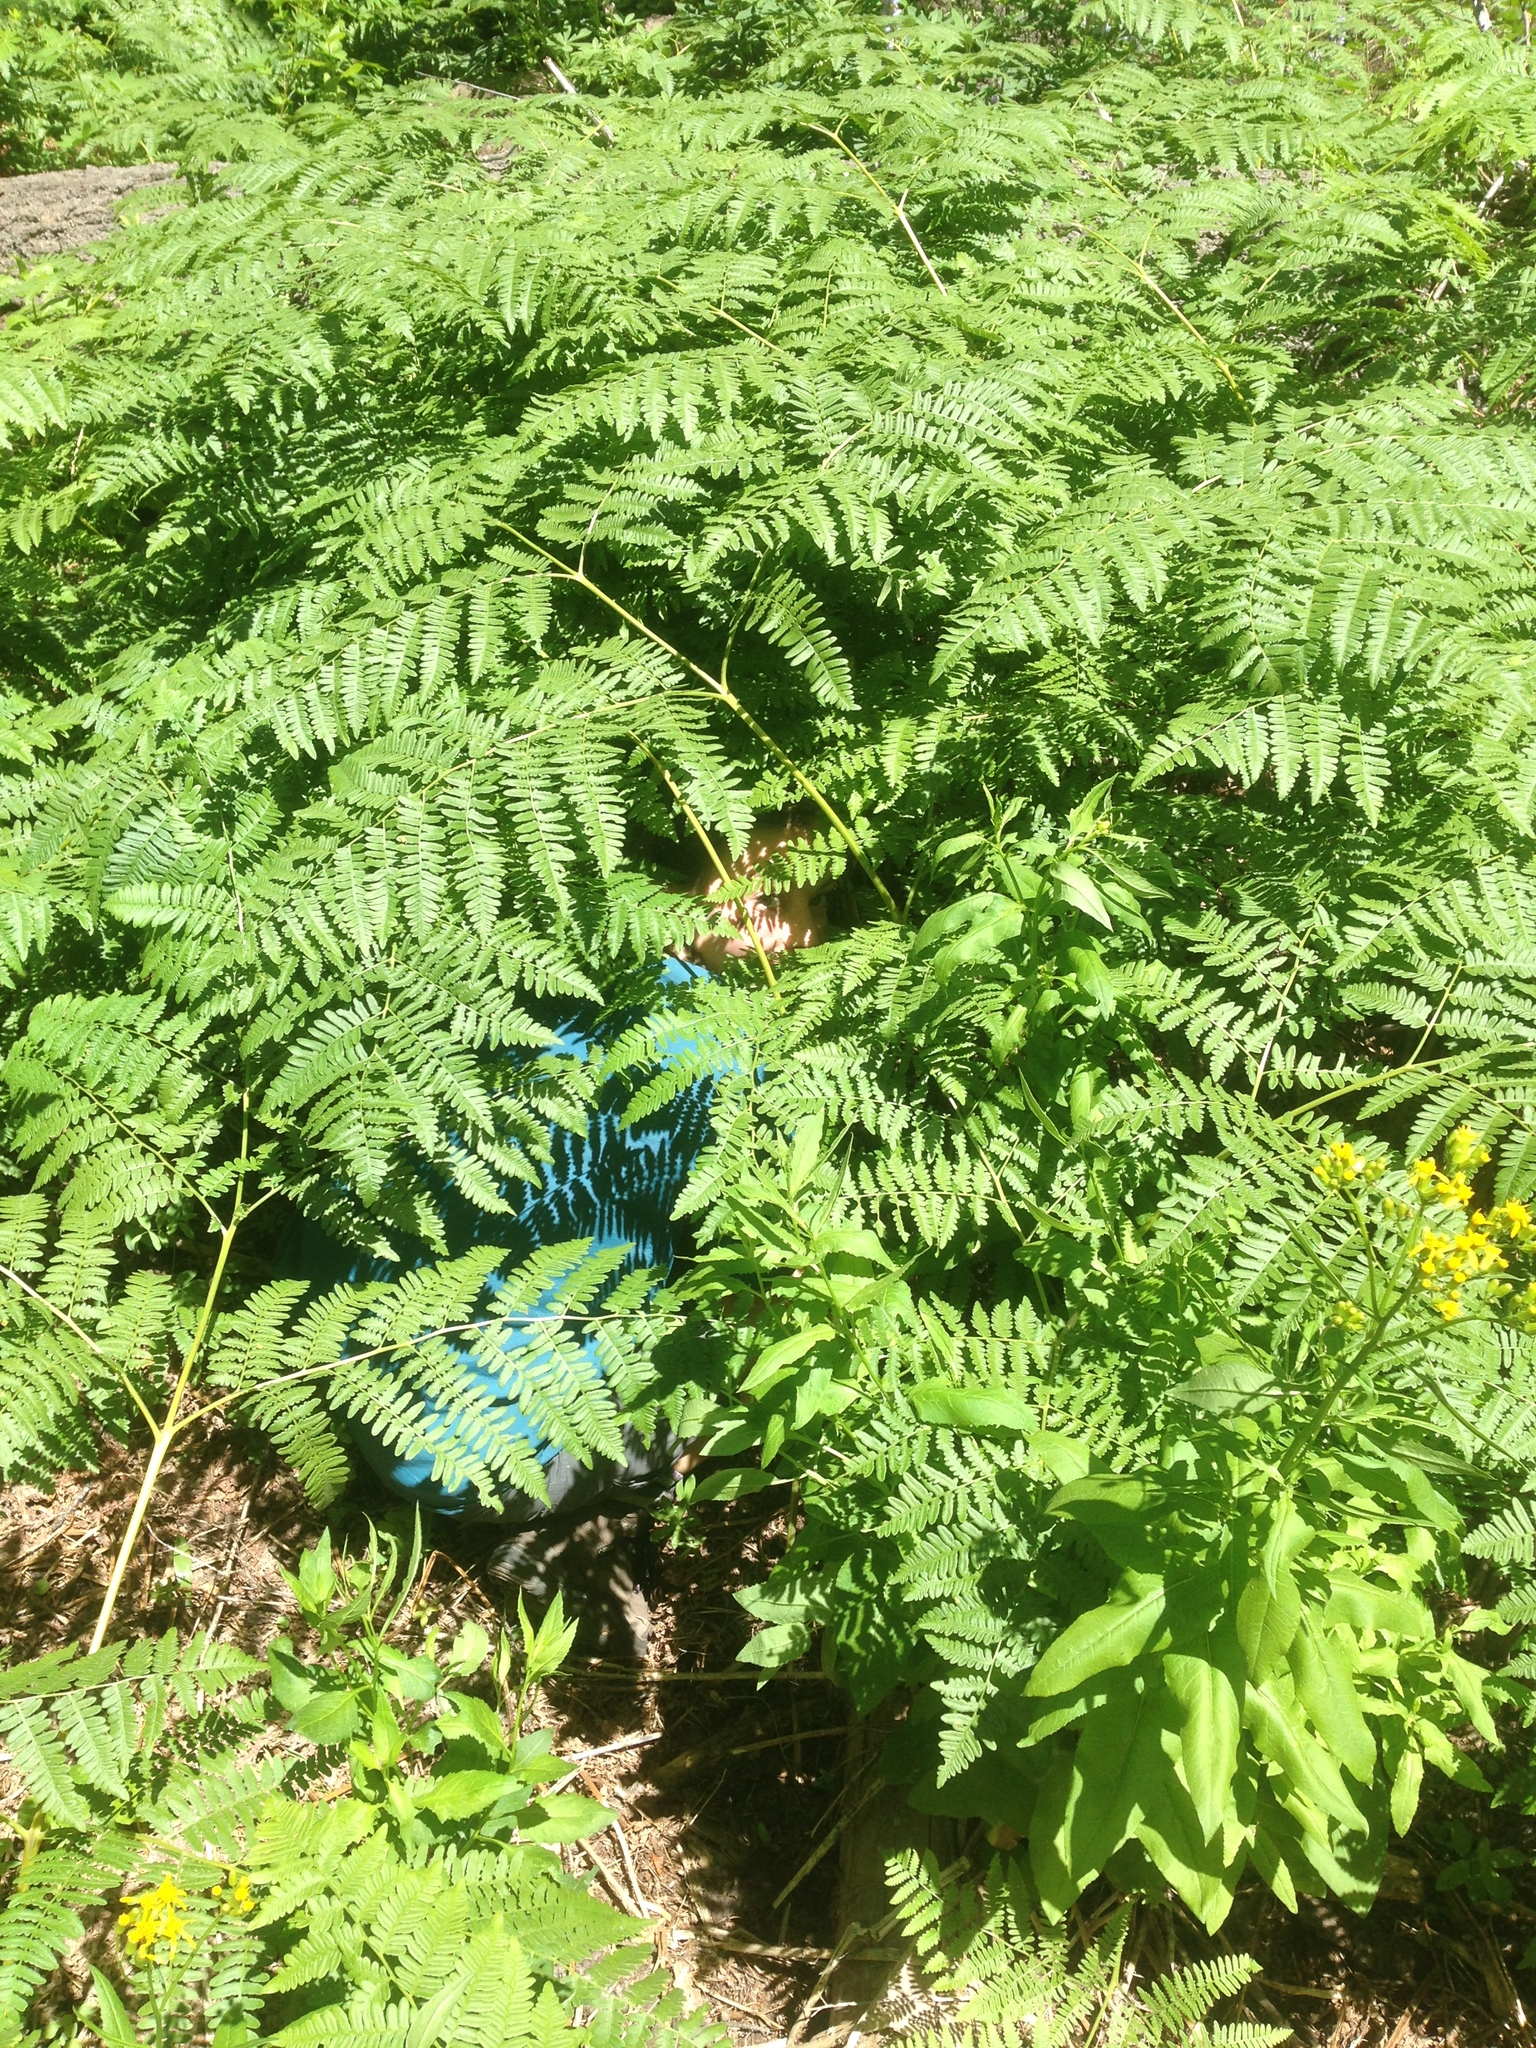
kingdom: Plantae
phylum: Tracheophyta
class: Polypodiopsida
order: Polypodiales
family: Dennstaedtiaceae
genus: Pteridium
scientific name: Pteridium aquilinum
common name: Bracken
